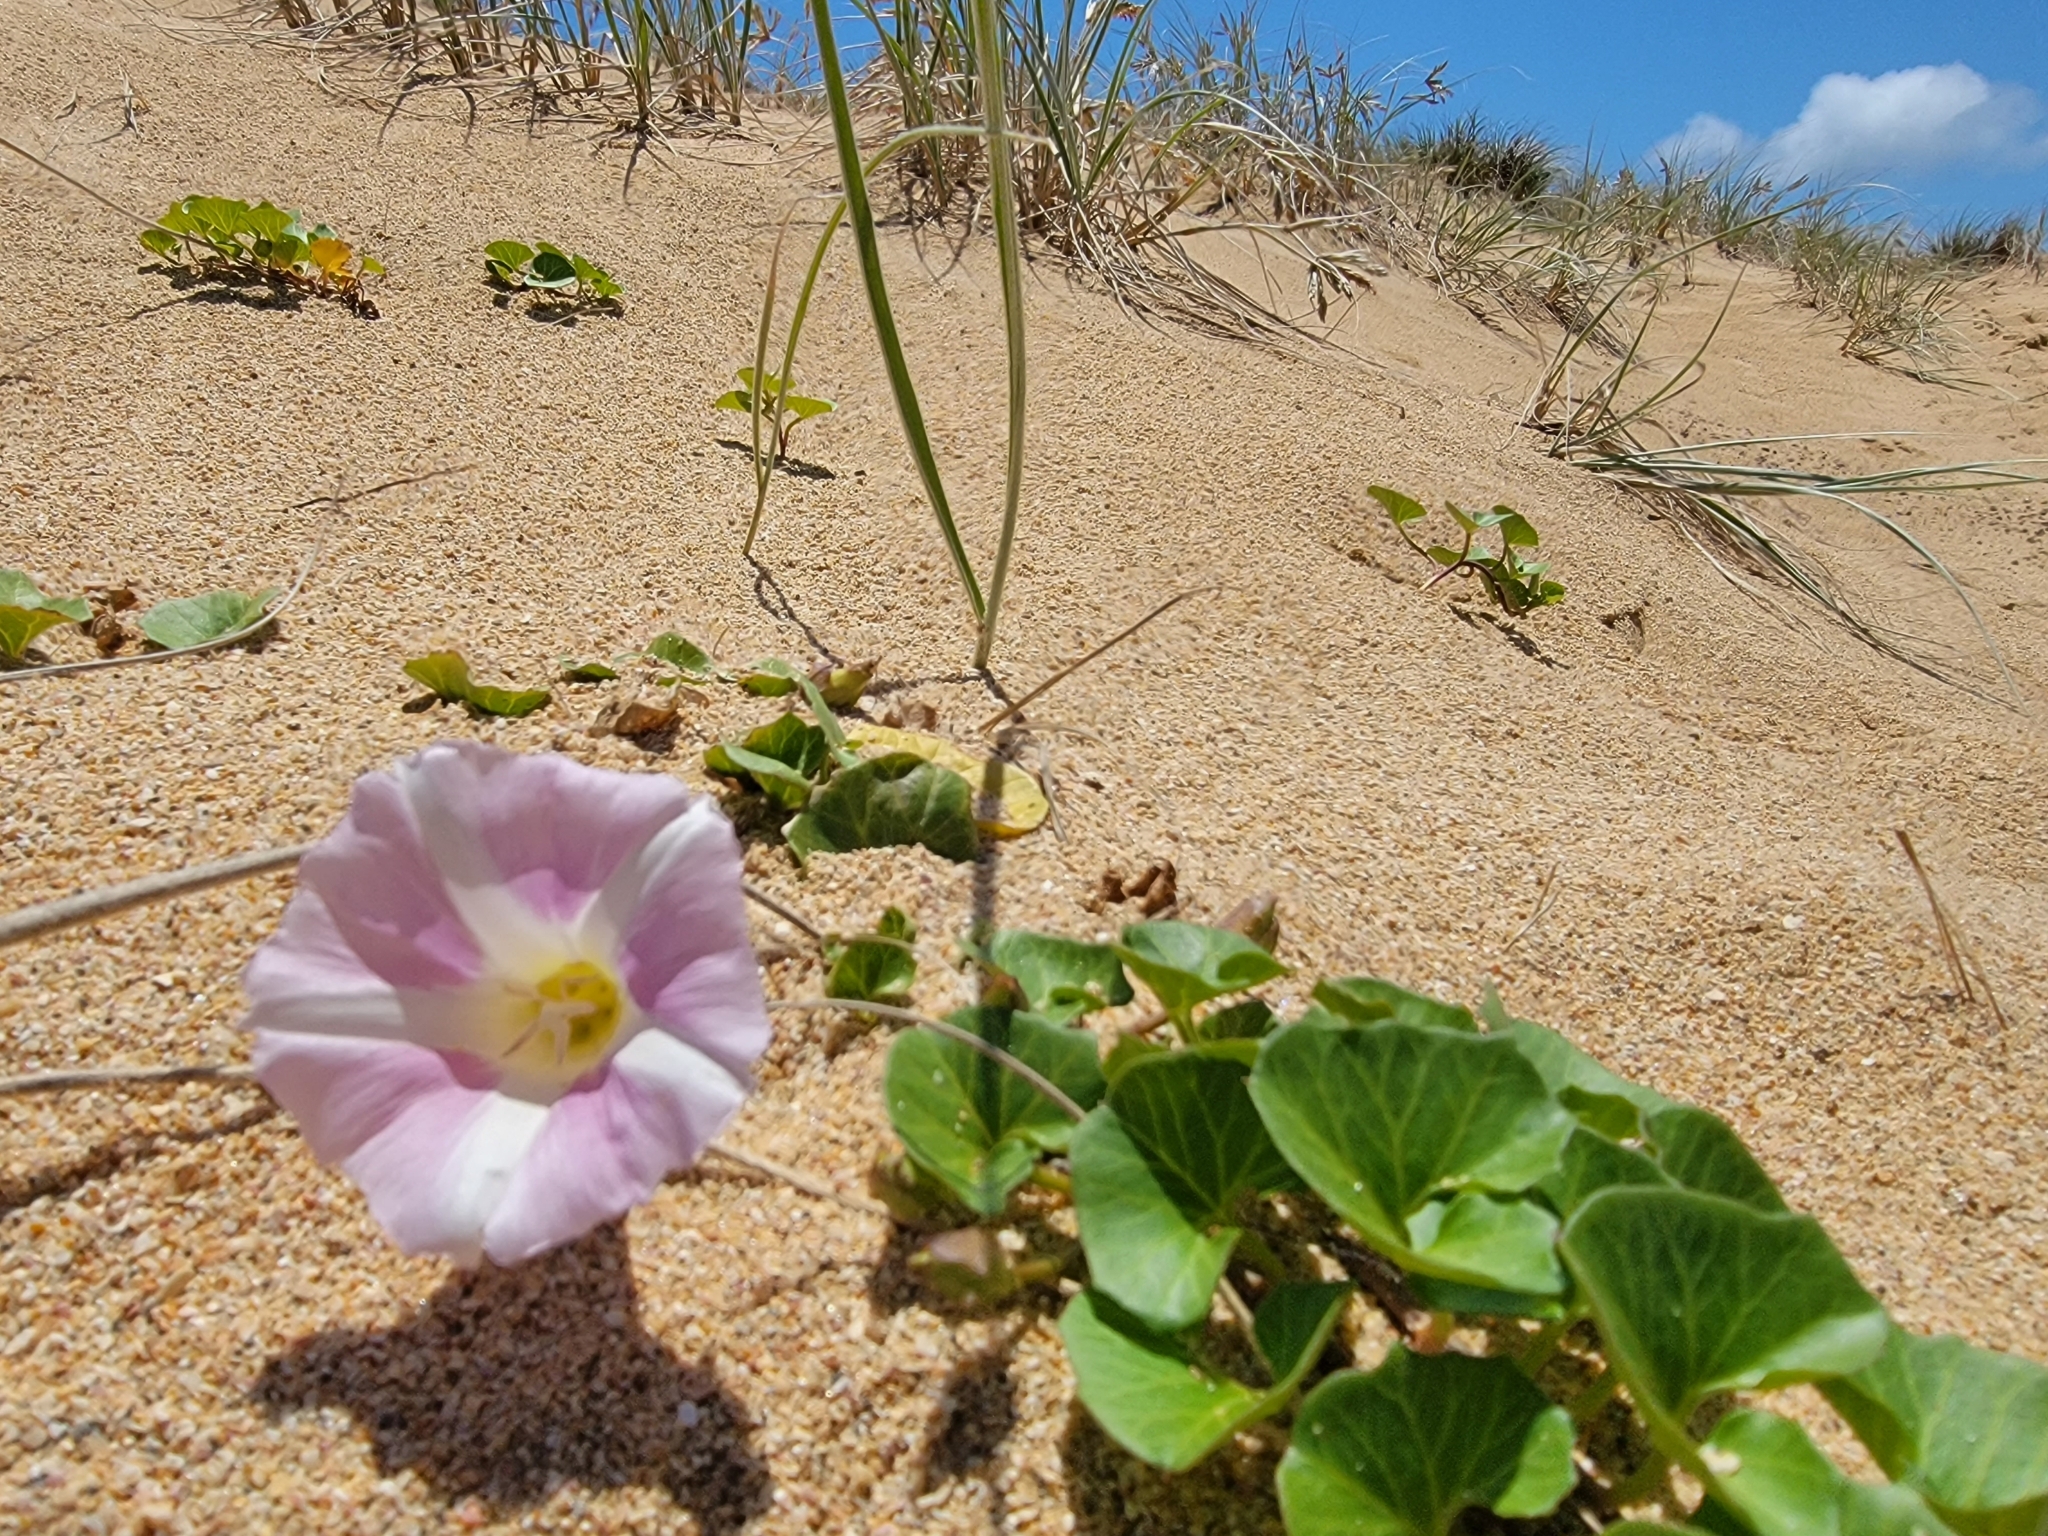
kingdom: Plantae
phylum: Tracheophyta
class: Magnoliopsida
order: Solanales
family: Convolvulaceae
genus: Calystegia
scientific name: Calystegia soldanella
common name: Sea bindweed
